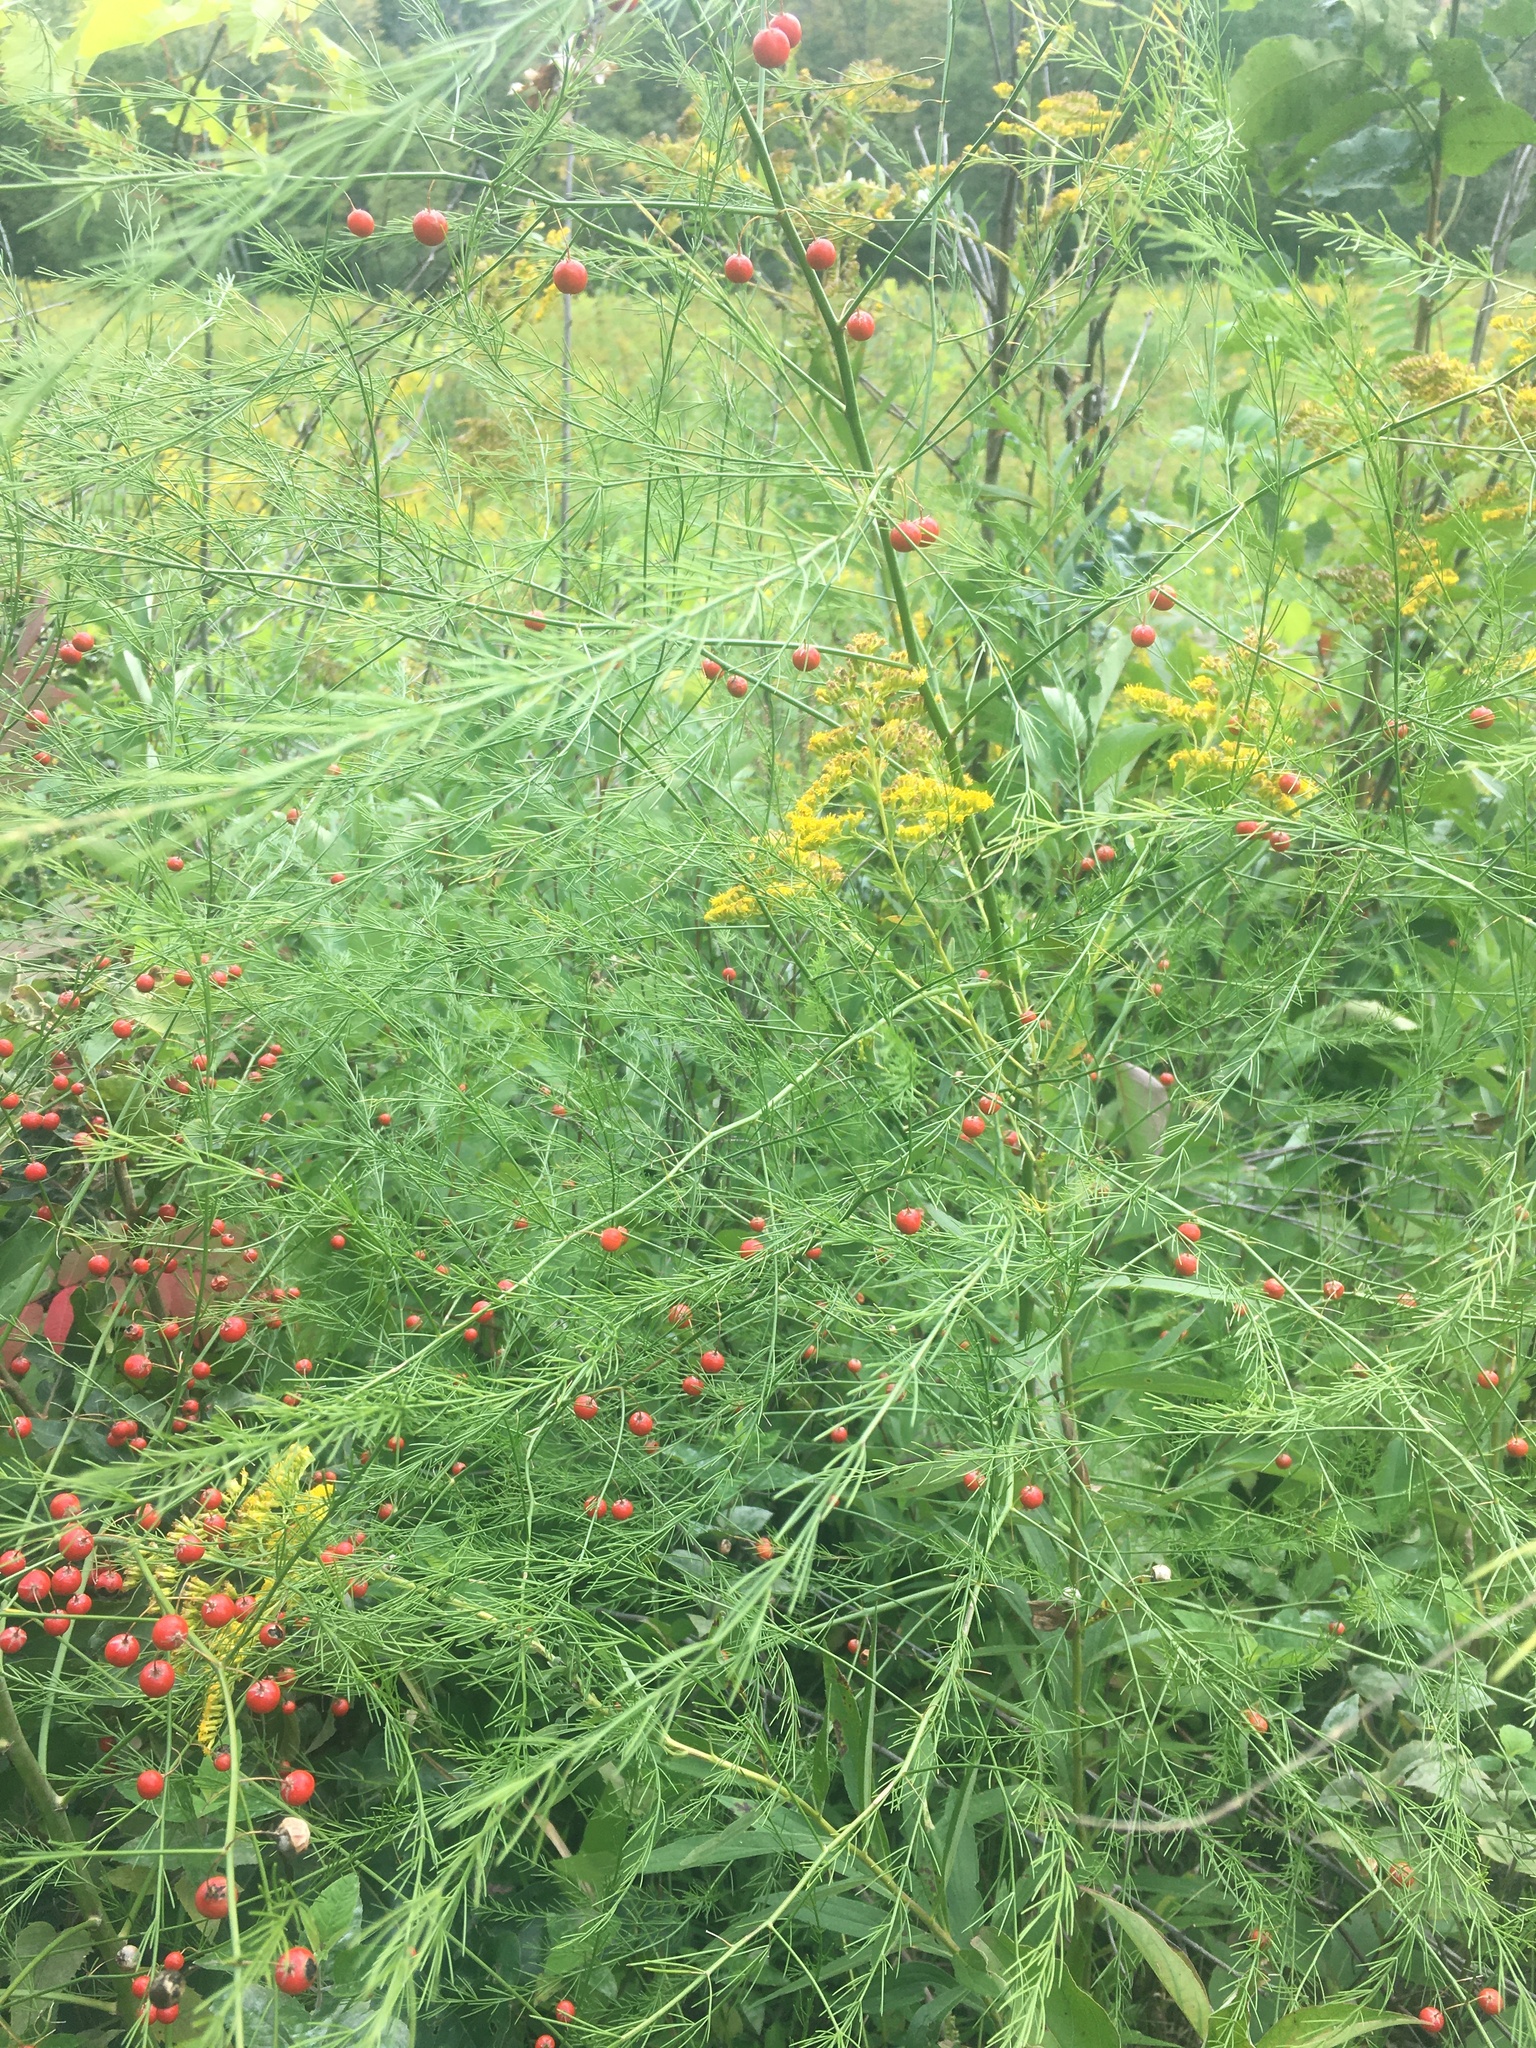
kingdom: Plantae
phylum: Tracheophyta
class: Liliopsida
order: Asparagales
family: Asparagaceae
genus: Asparagus
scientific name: Asparagus officinalis
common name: Garden asparagus
